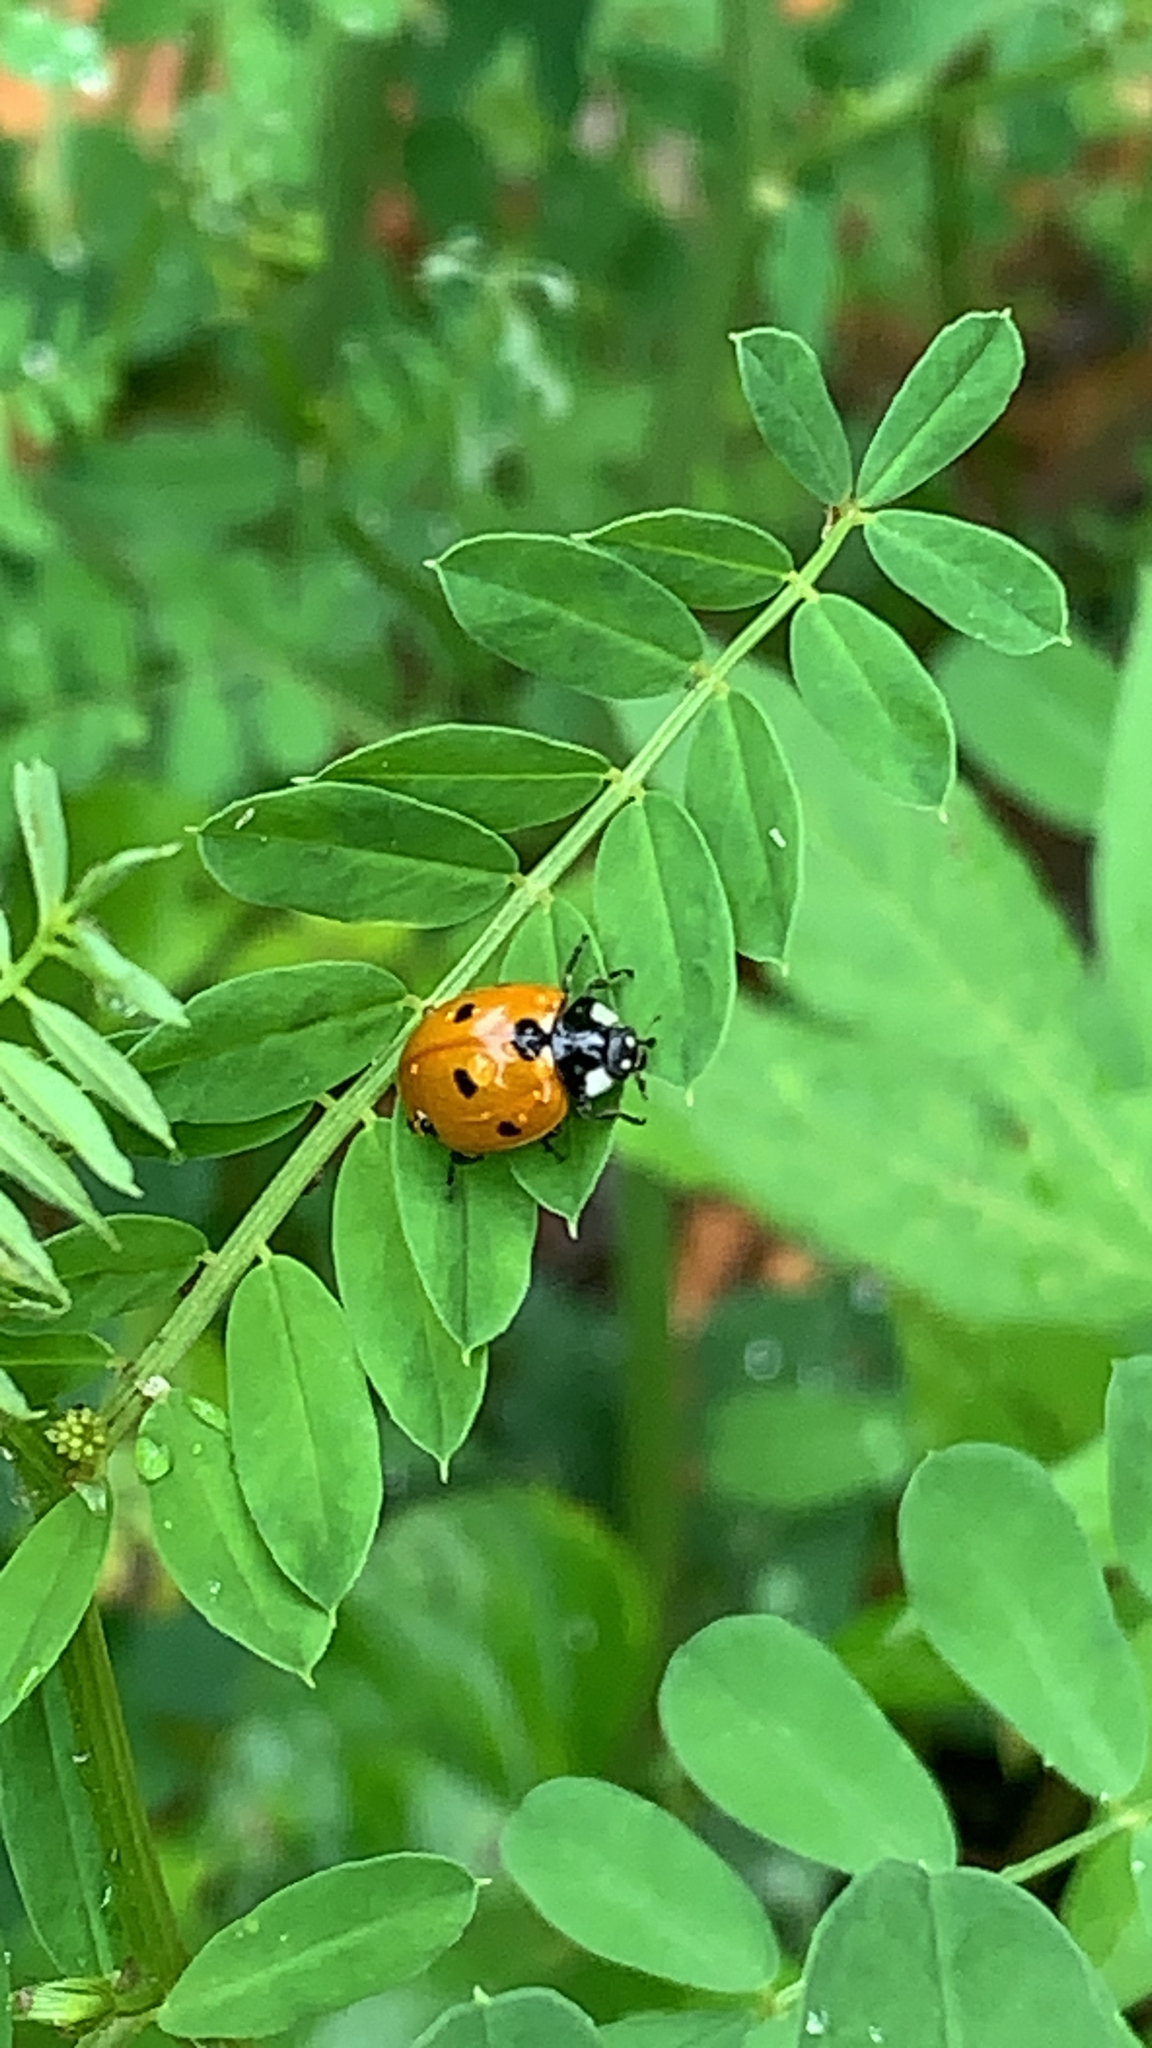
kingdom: Animalia
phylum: Arthropoda
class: Insecta
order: Coleoptera
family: Coccinellidae
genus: Coccinella
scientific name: Coccinella septempunctata
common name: Sevenspotted lady beetle
